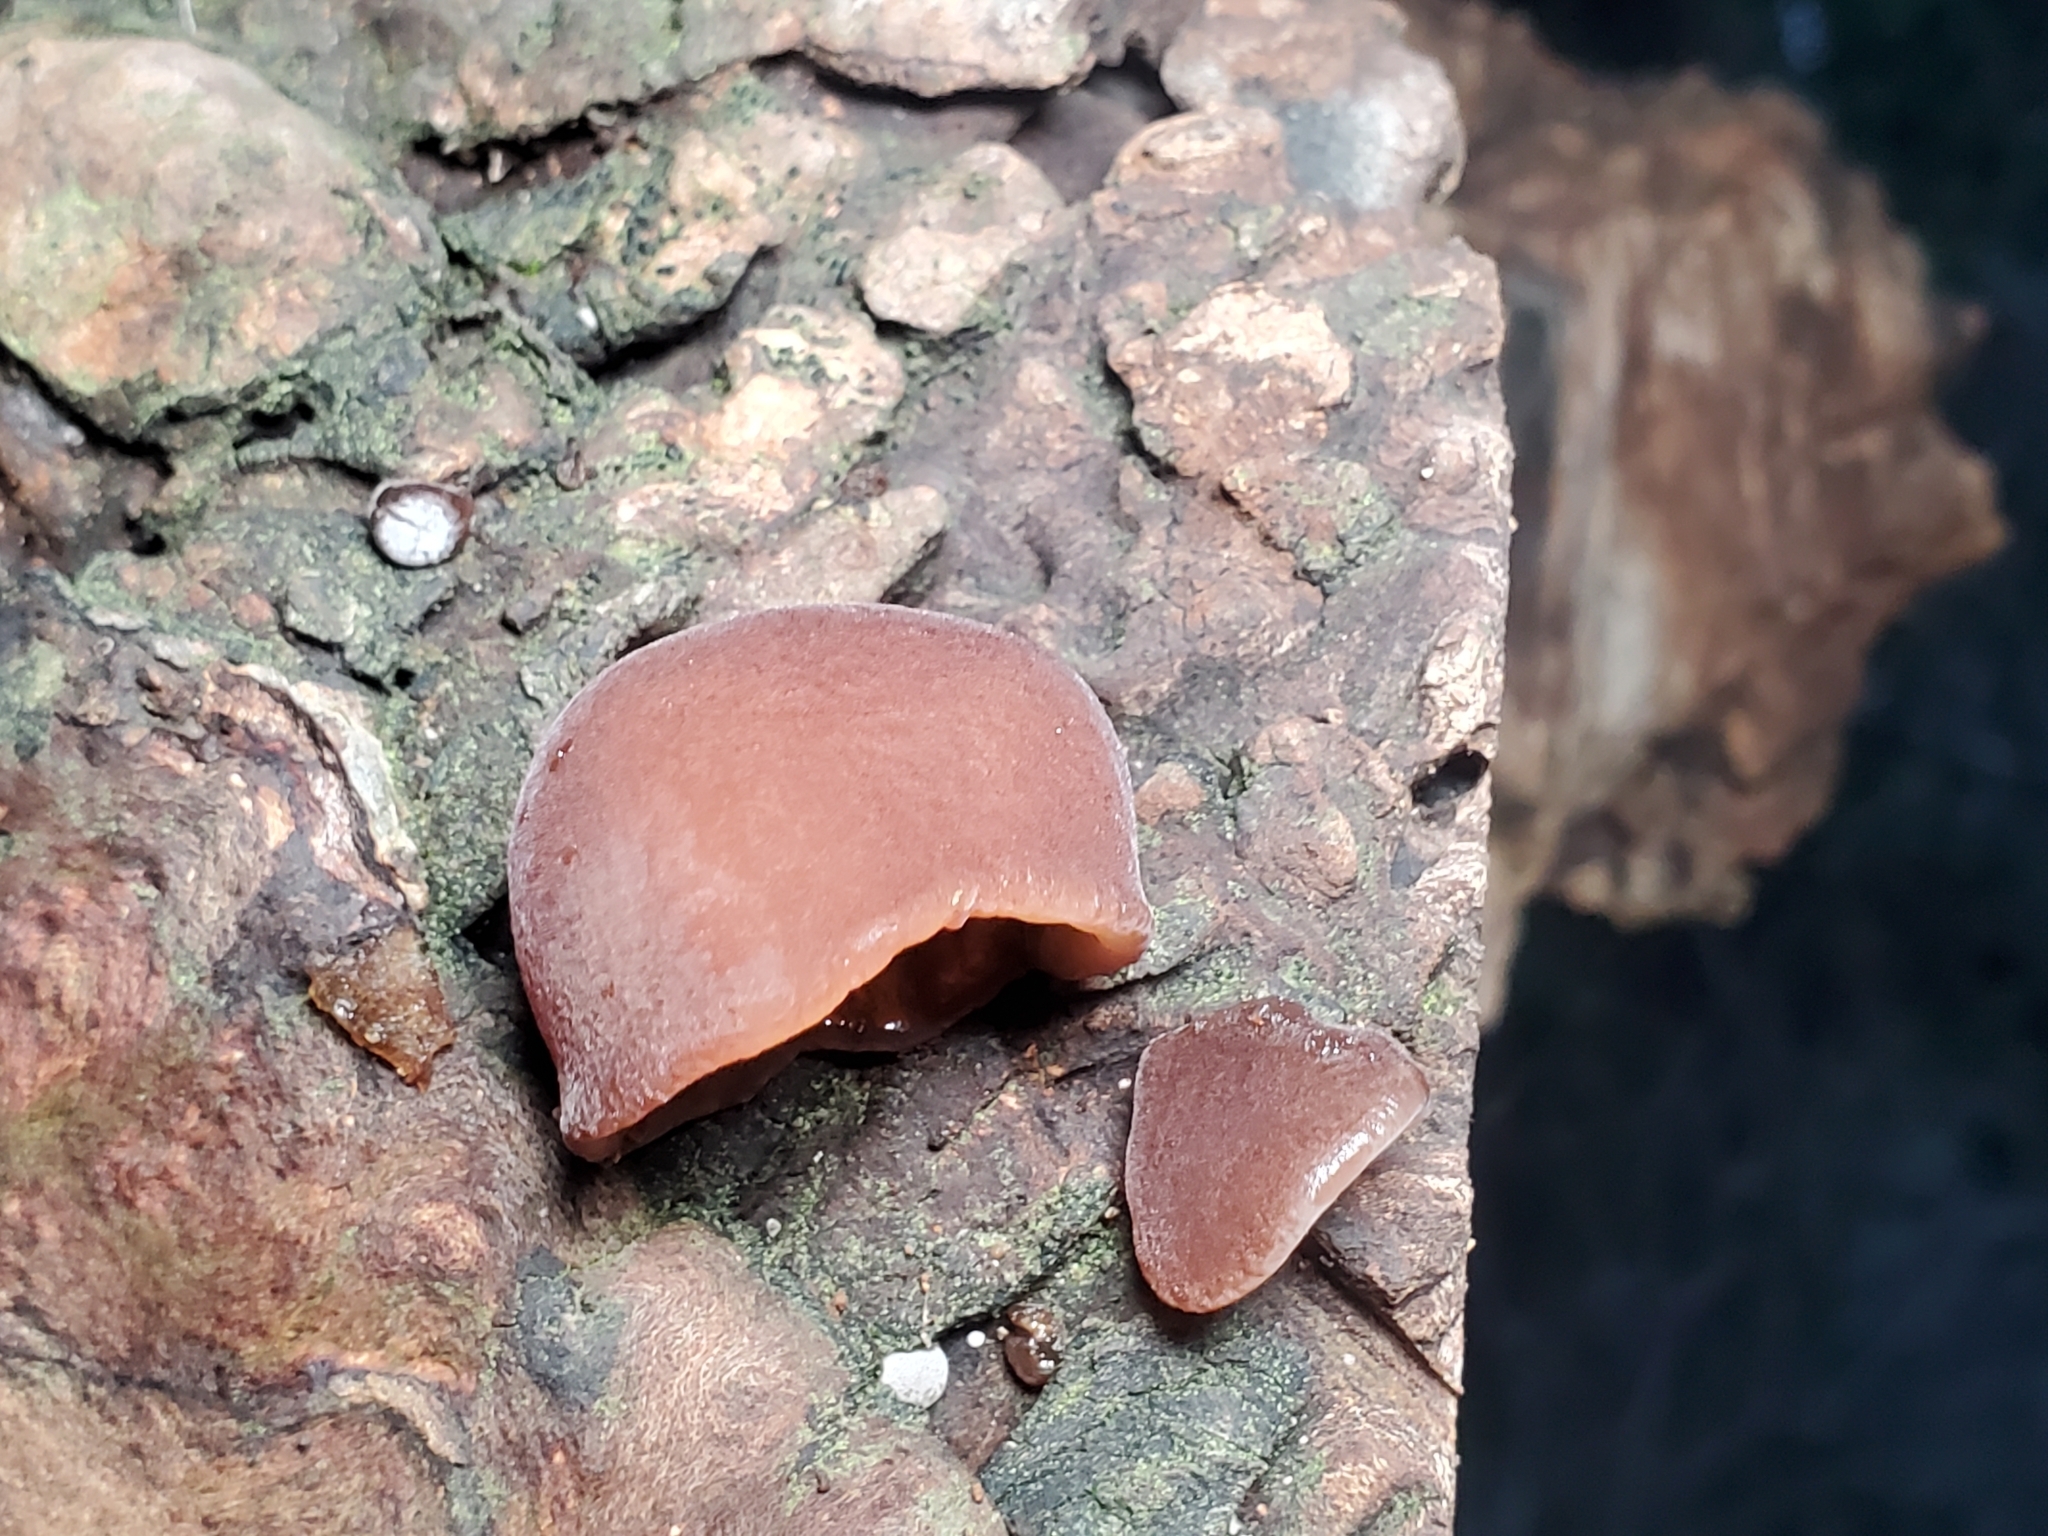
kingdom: Fungi
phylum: Basidiomycota
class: Agaricomycetes
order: Auriculariales
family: Auriculariaceae
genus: Auricularia
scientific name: Auricularia auricula-judae
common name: Jelly ear
